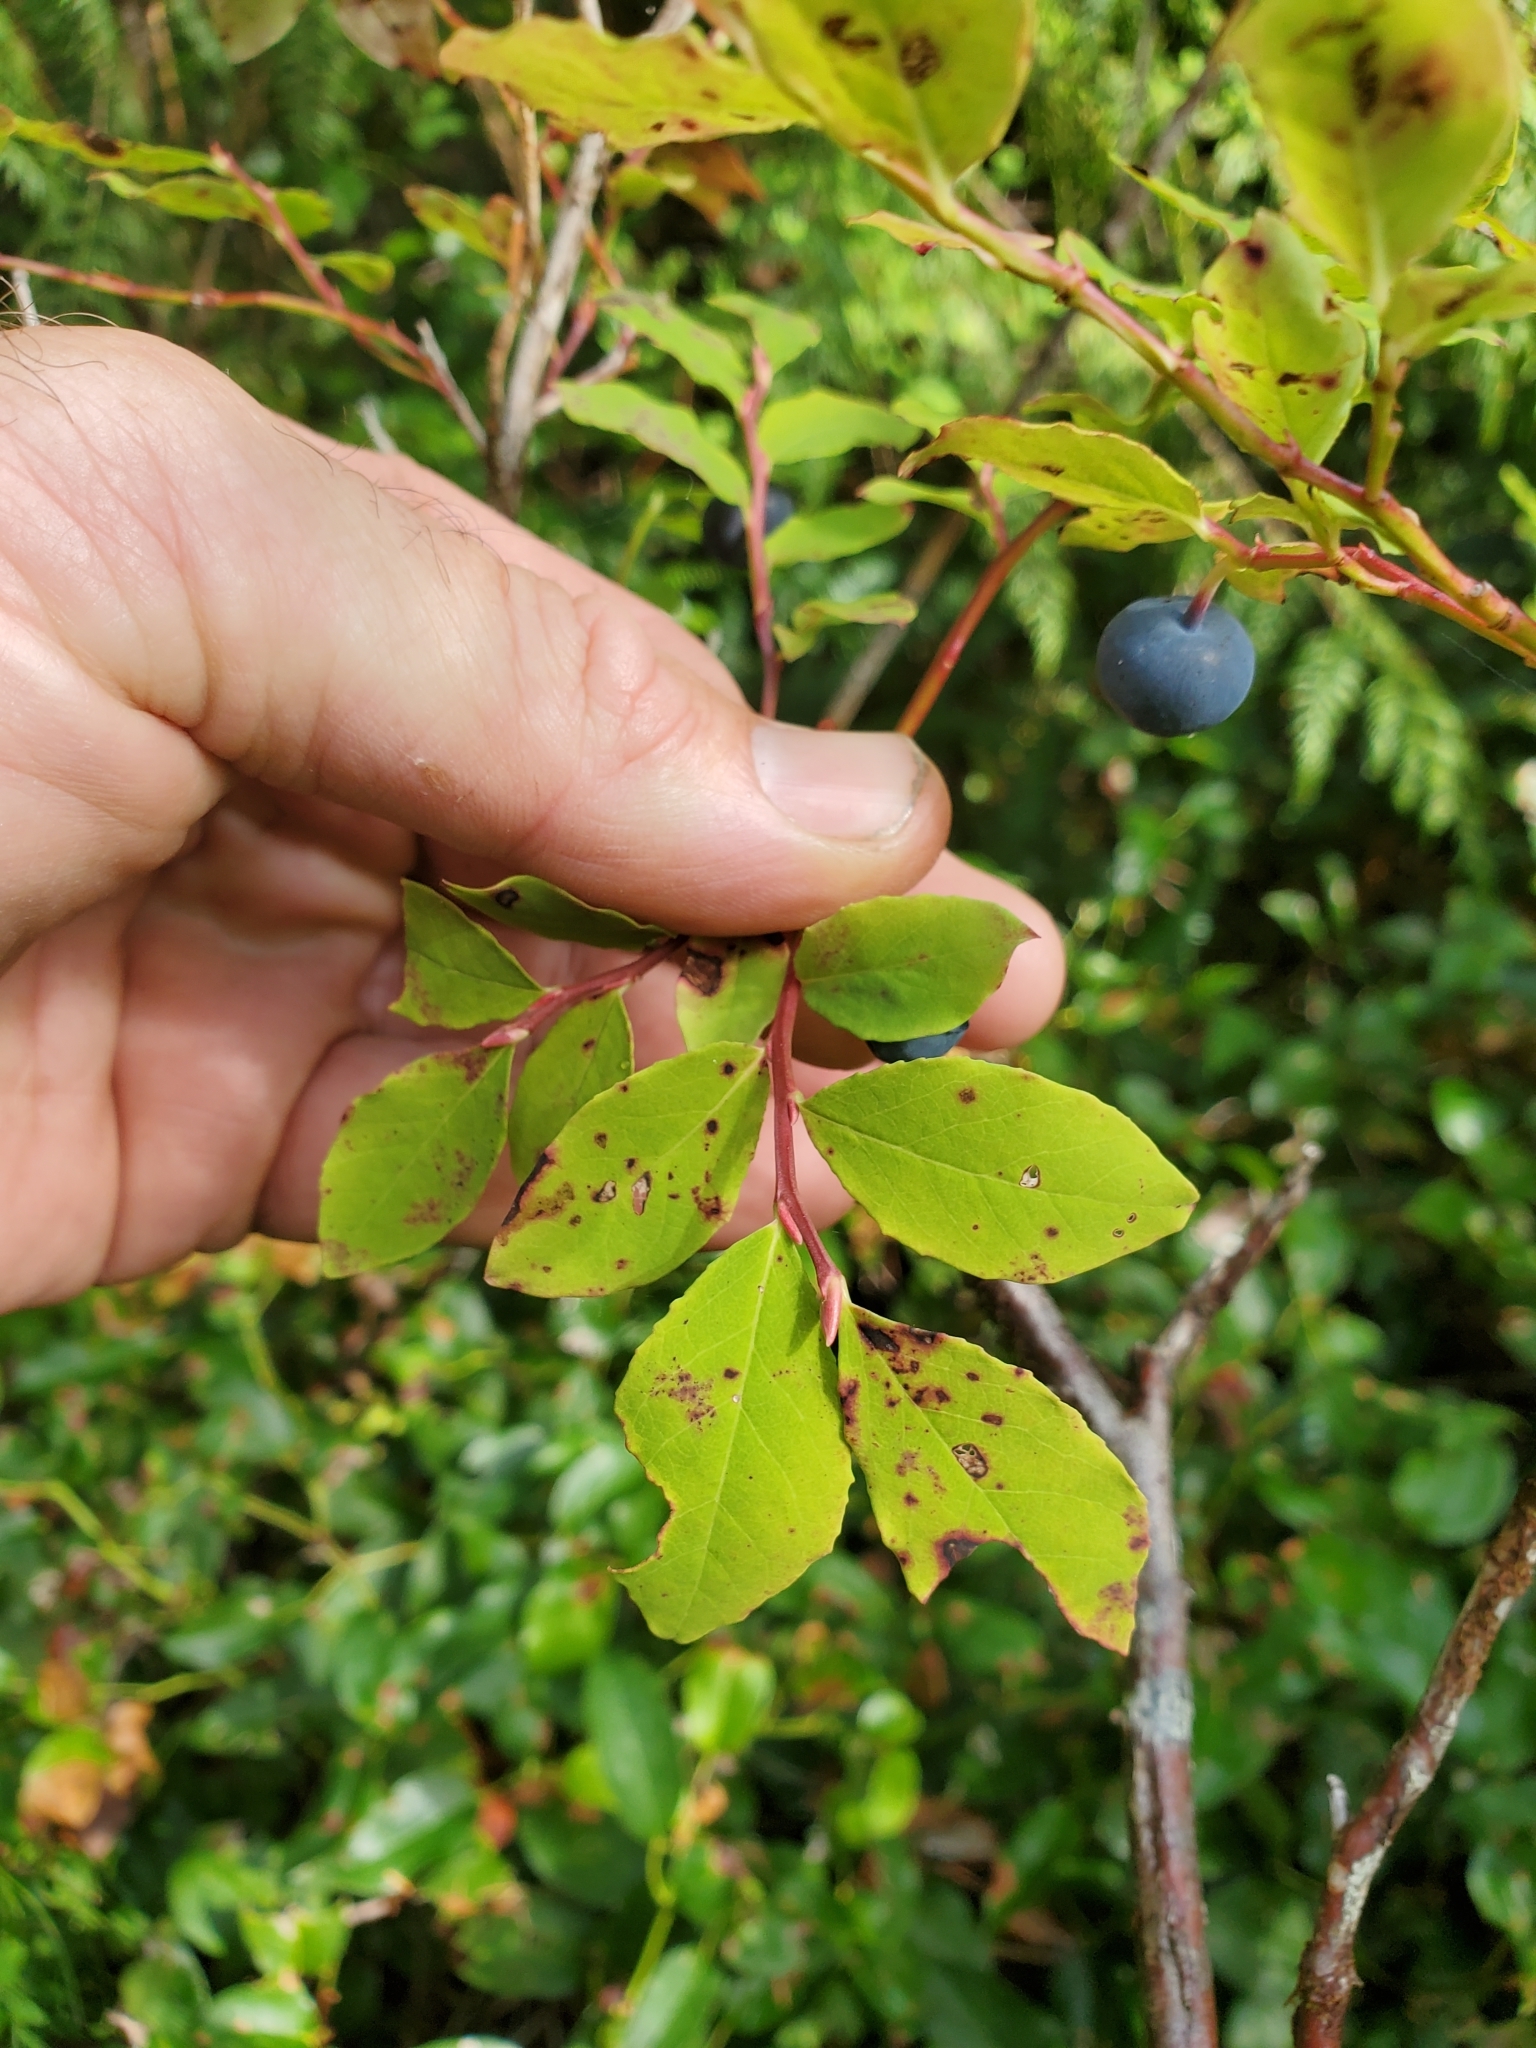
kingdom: Plantae
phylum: Tracheophyta
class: Magnoliopsida
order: Ericales
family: Ericaceae
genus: Vaccinium
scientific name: Vaccinium ovalifolium
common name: Early blueberry
